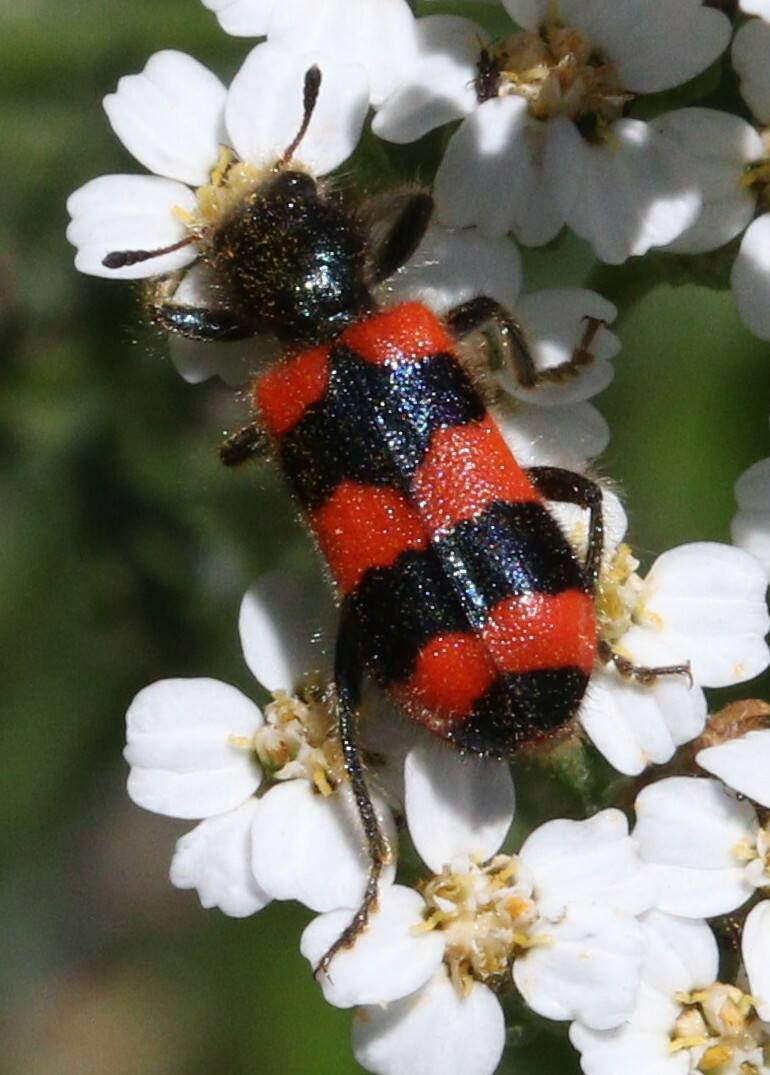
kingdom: Animalia
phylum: Arthropoda
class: Insecta
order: Coleoptera
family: Cleridae
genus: Trichodes
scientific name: Trichodes apiarius
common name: Bee-eating beetle
